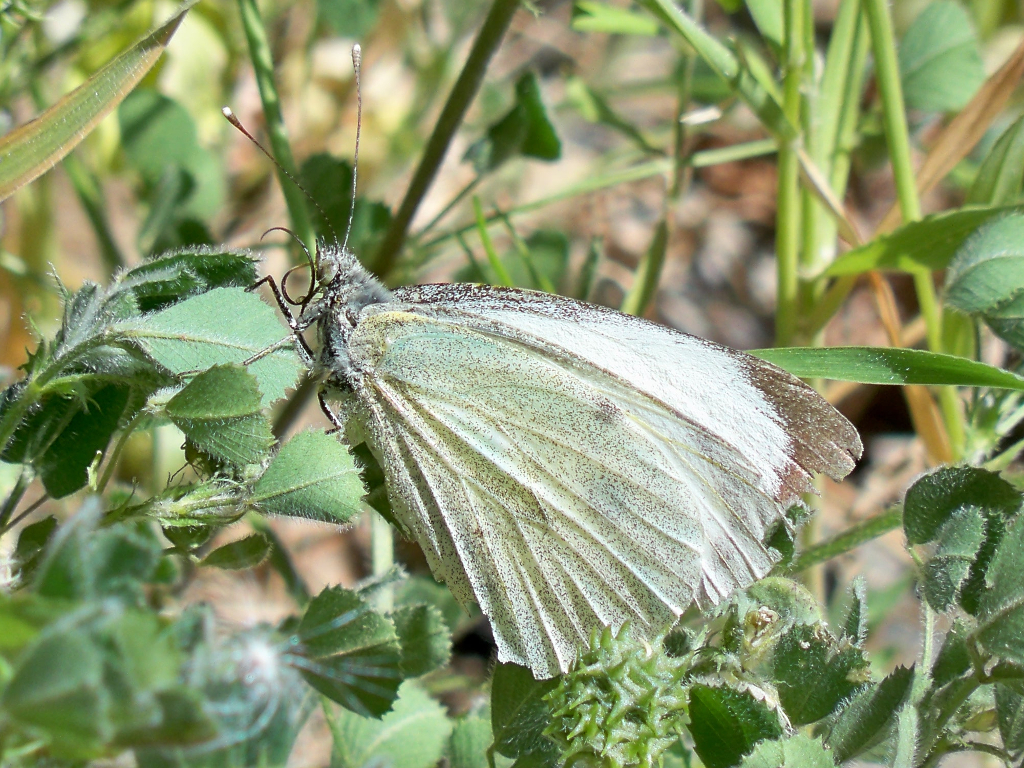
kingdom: Animalia
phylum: Arthropoda
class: Insecta
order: Lepidoptera
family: Pieridae
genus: Pieris
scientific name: Pieris brassicae
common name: Large white
